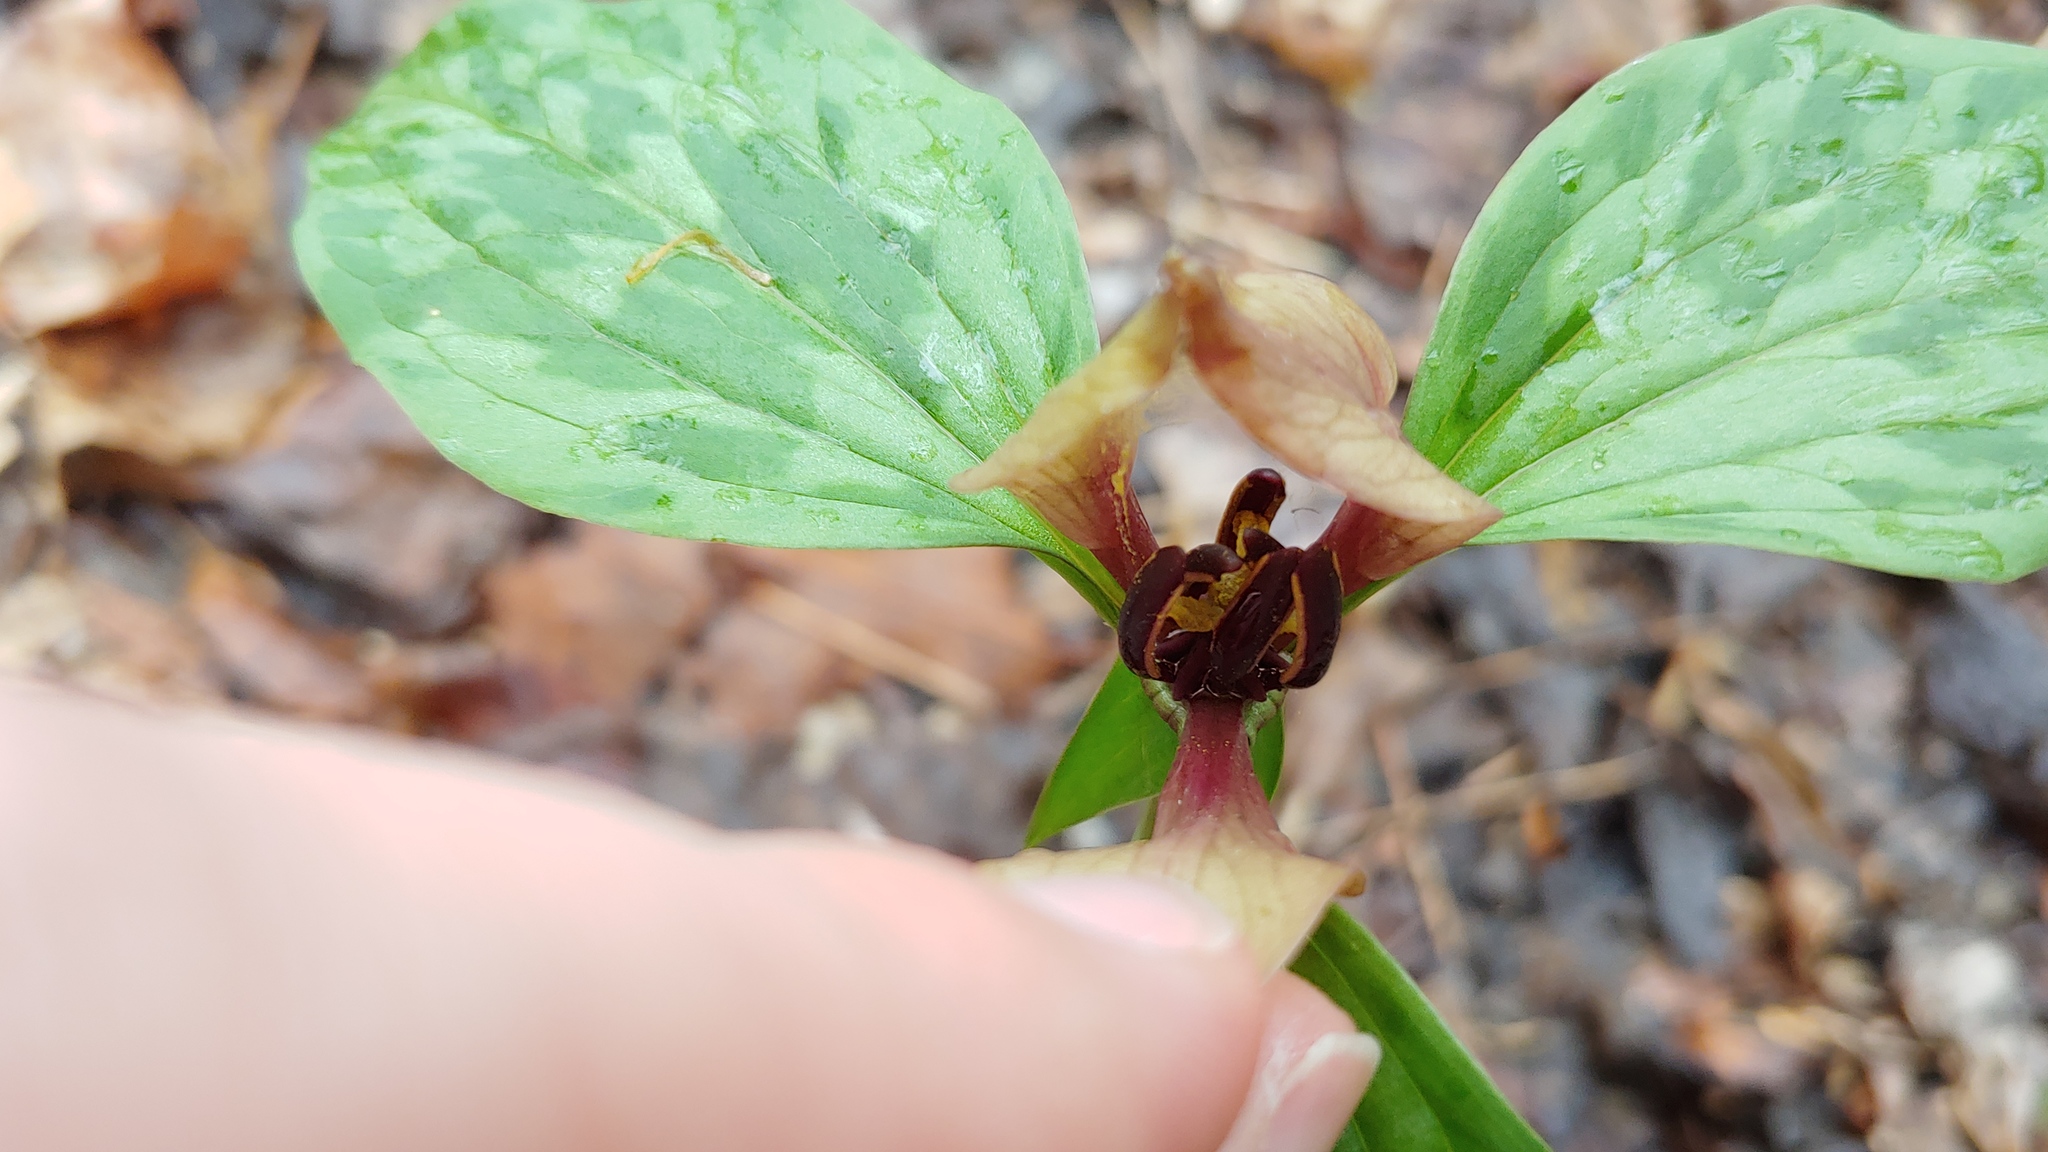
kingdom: Plantae
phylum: Tracheophyta
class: Liliopsida
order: Liliales
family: Melanthiaceae
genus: Trillium
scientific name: Trillium recurvatum
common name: Bloody butcher
